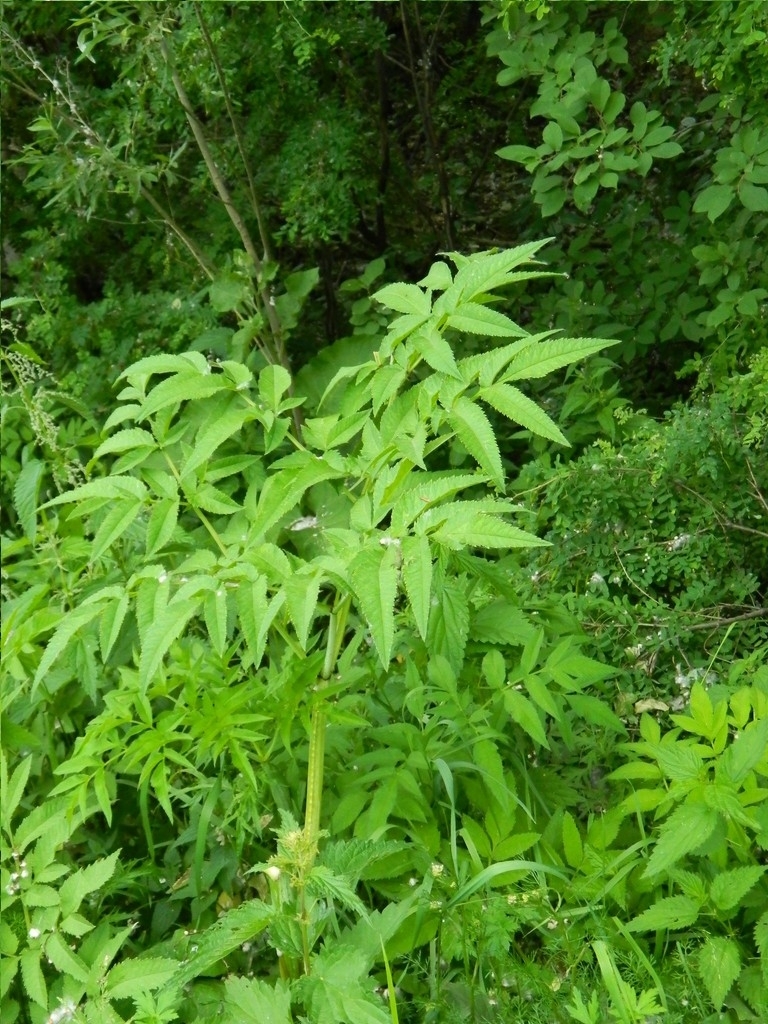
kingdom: Plantae
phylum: Tracheophyta
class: Magnoliopsida
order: Apiales
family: Apiaceae
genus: Angelica
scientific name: Angelica sylvestris
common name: Wild angelica
